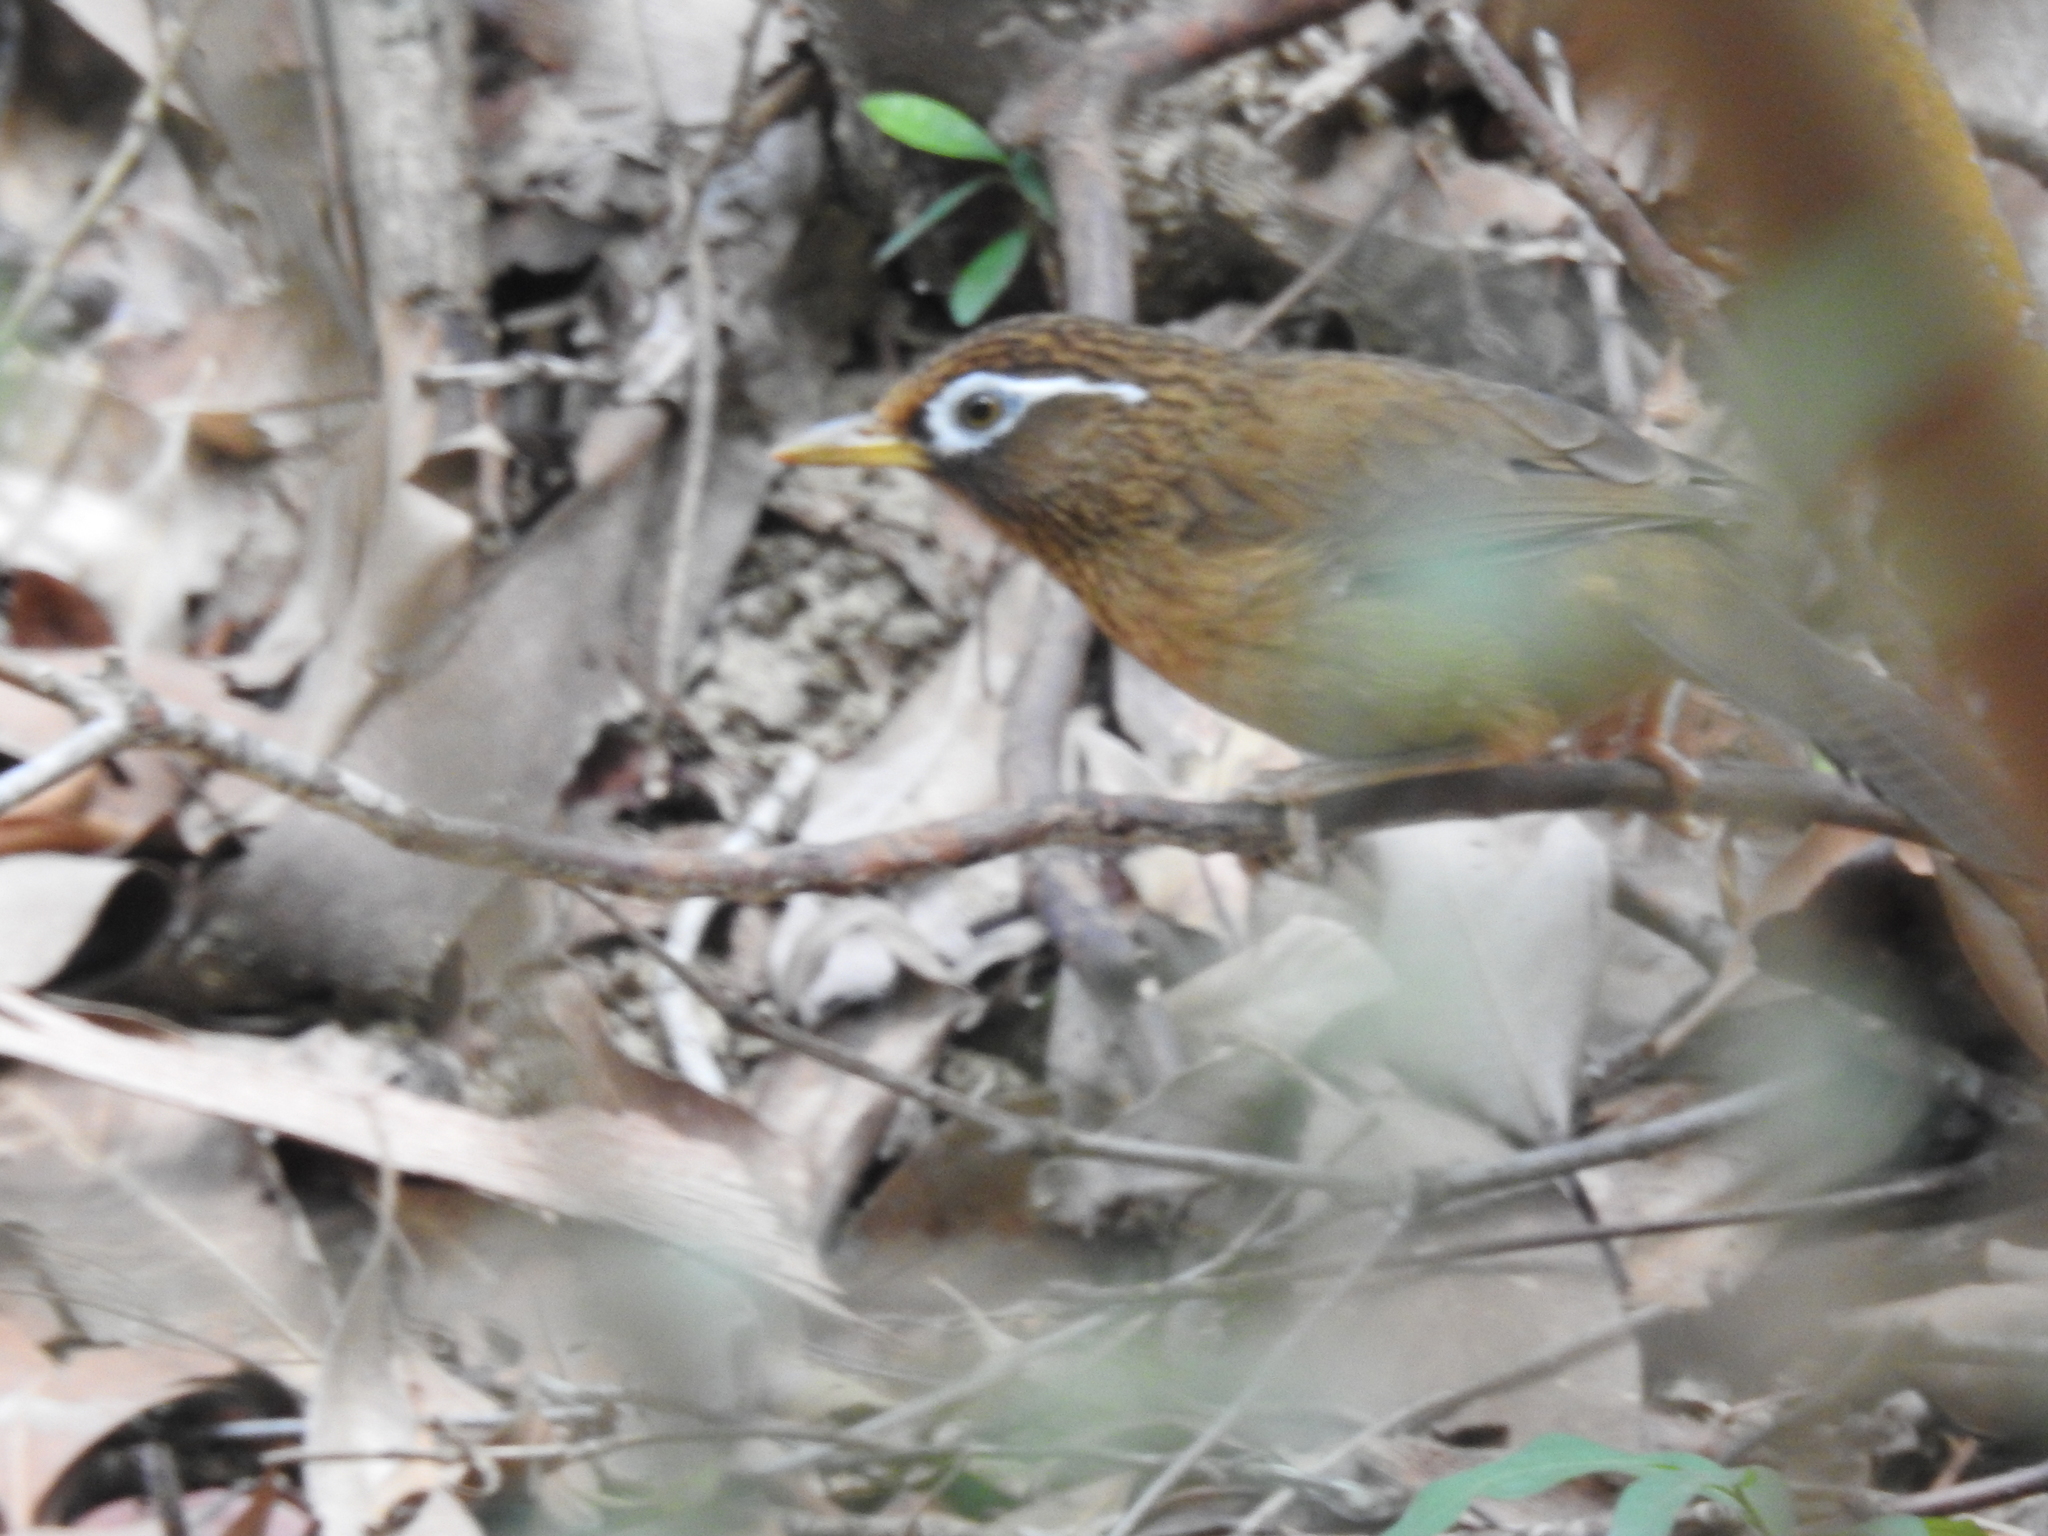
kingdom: Animalia
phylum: Chordata
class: Aves
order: Passeriformes
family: Leiothrichidae
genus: Garrulax
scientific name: Garrulax canorus
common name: Chinese hwamei
